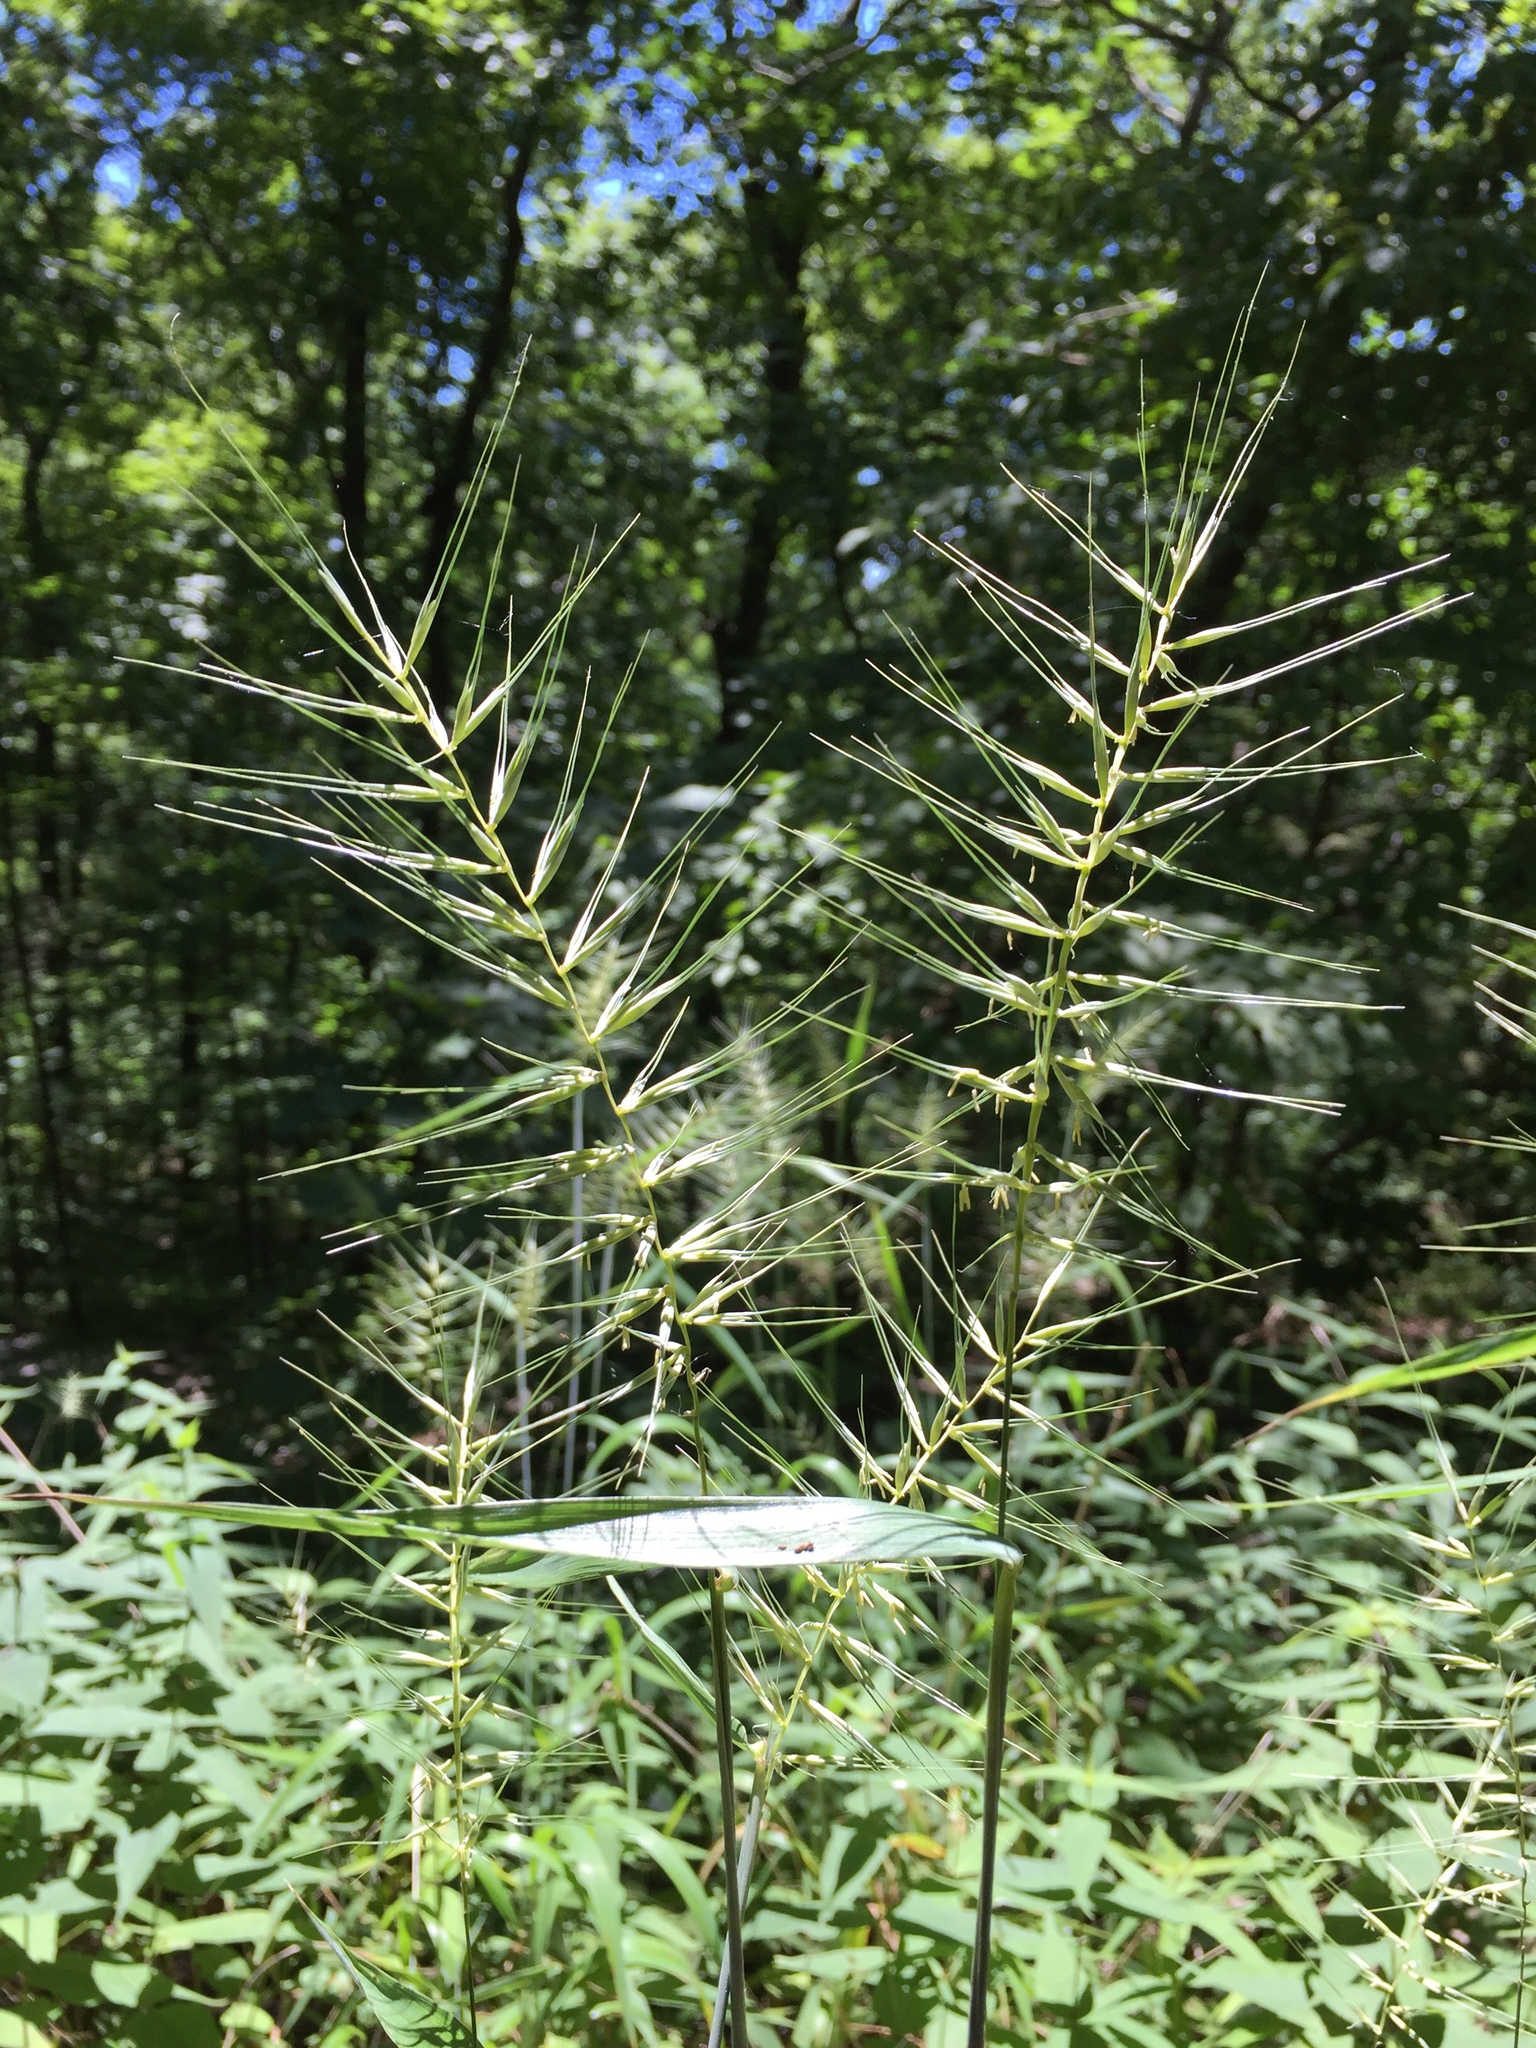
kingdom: Plantae
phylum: Tracheophyta
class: Liliopsida
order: Poales
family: Poaceae
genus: Elymus
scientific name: Elymus hystrix
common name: Bottlebrush grass
